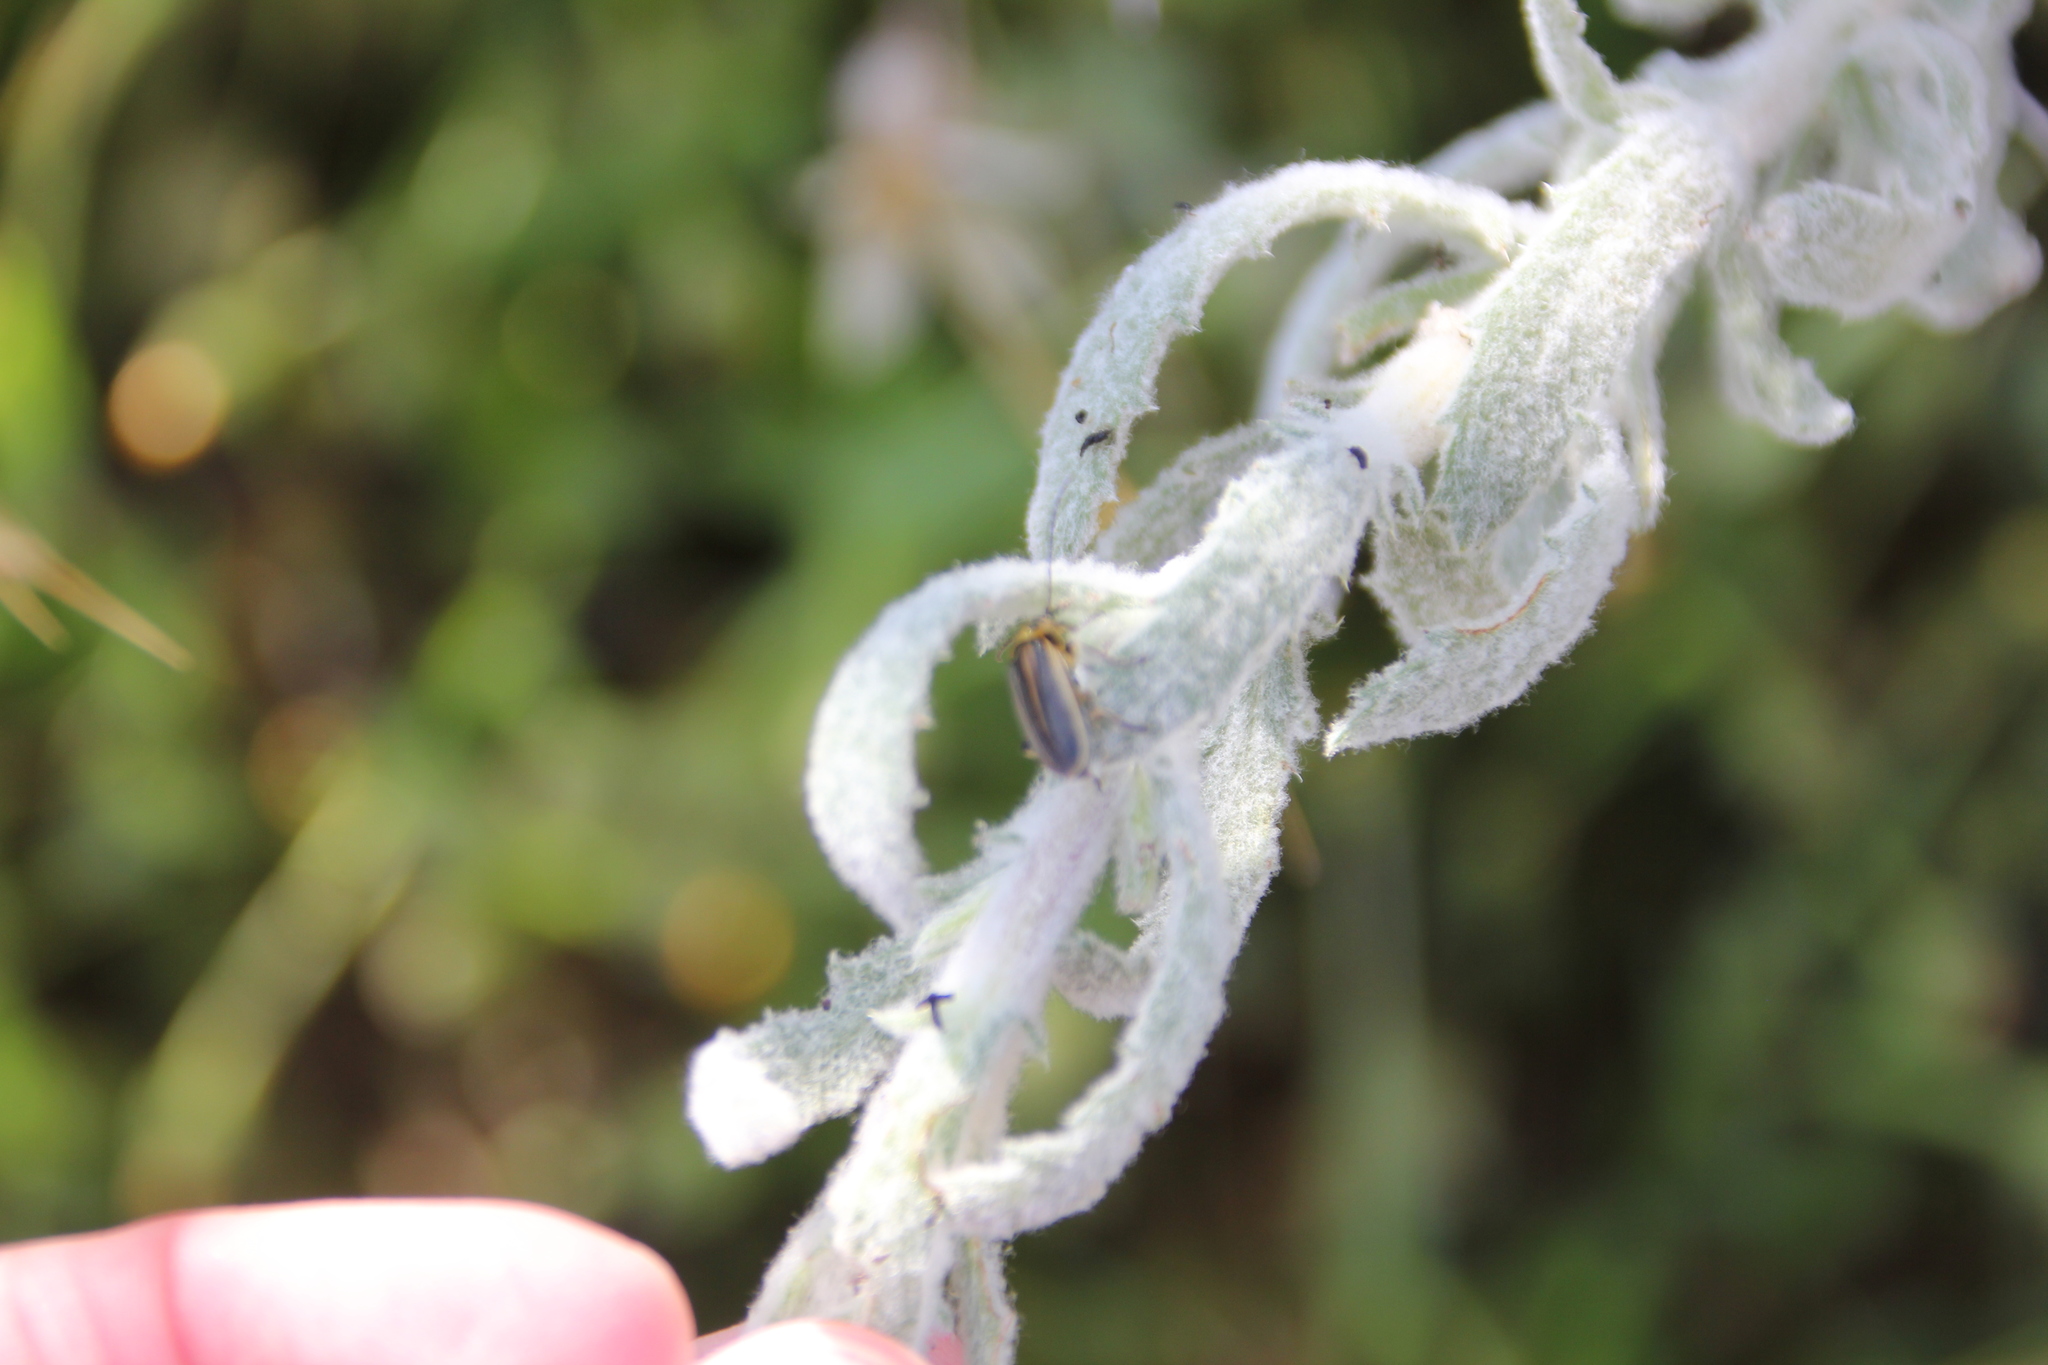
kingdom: Plantae
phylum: Tracheophyta
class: Magnoliopsida
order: Asterales
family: Asteraceae
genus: Isocoma
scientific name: Isocoma menziesii
